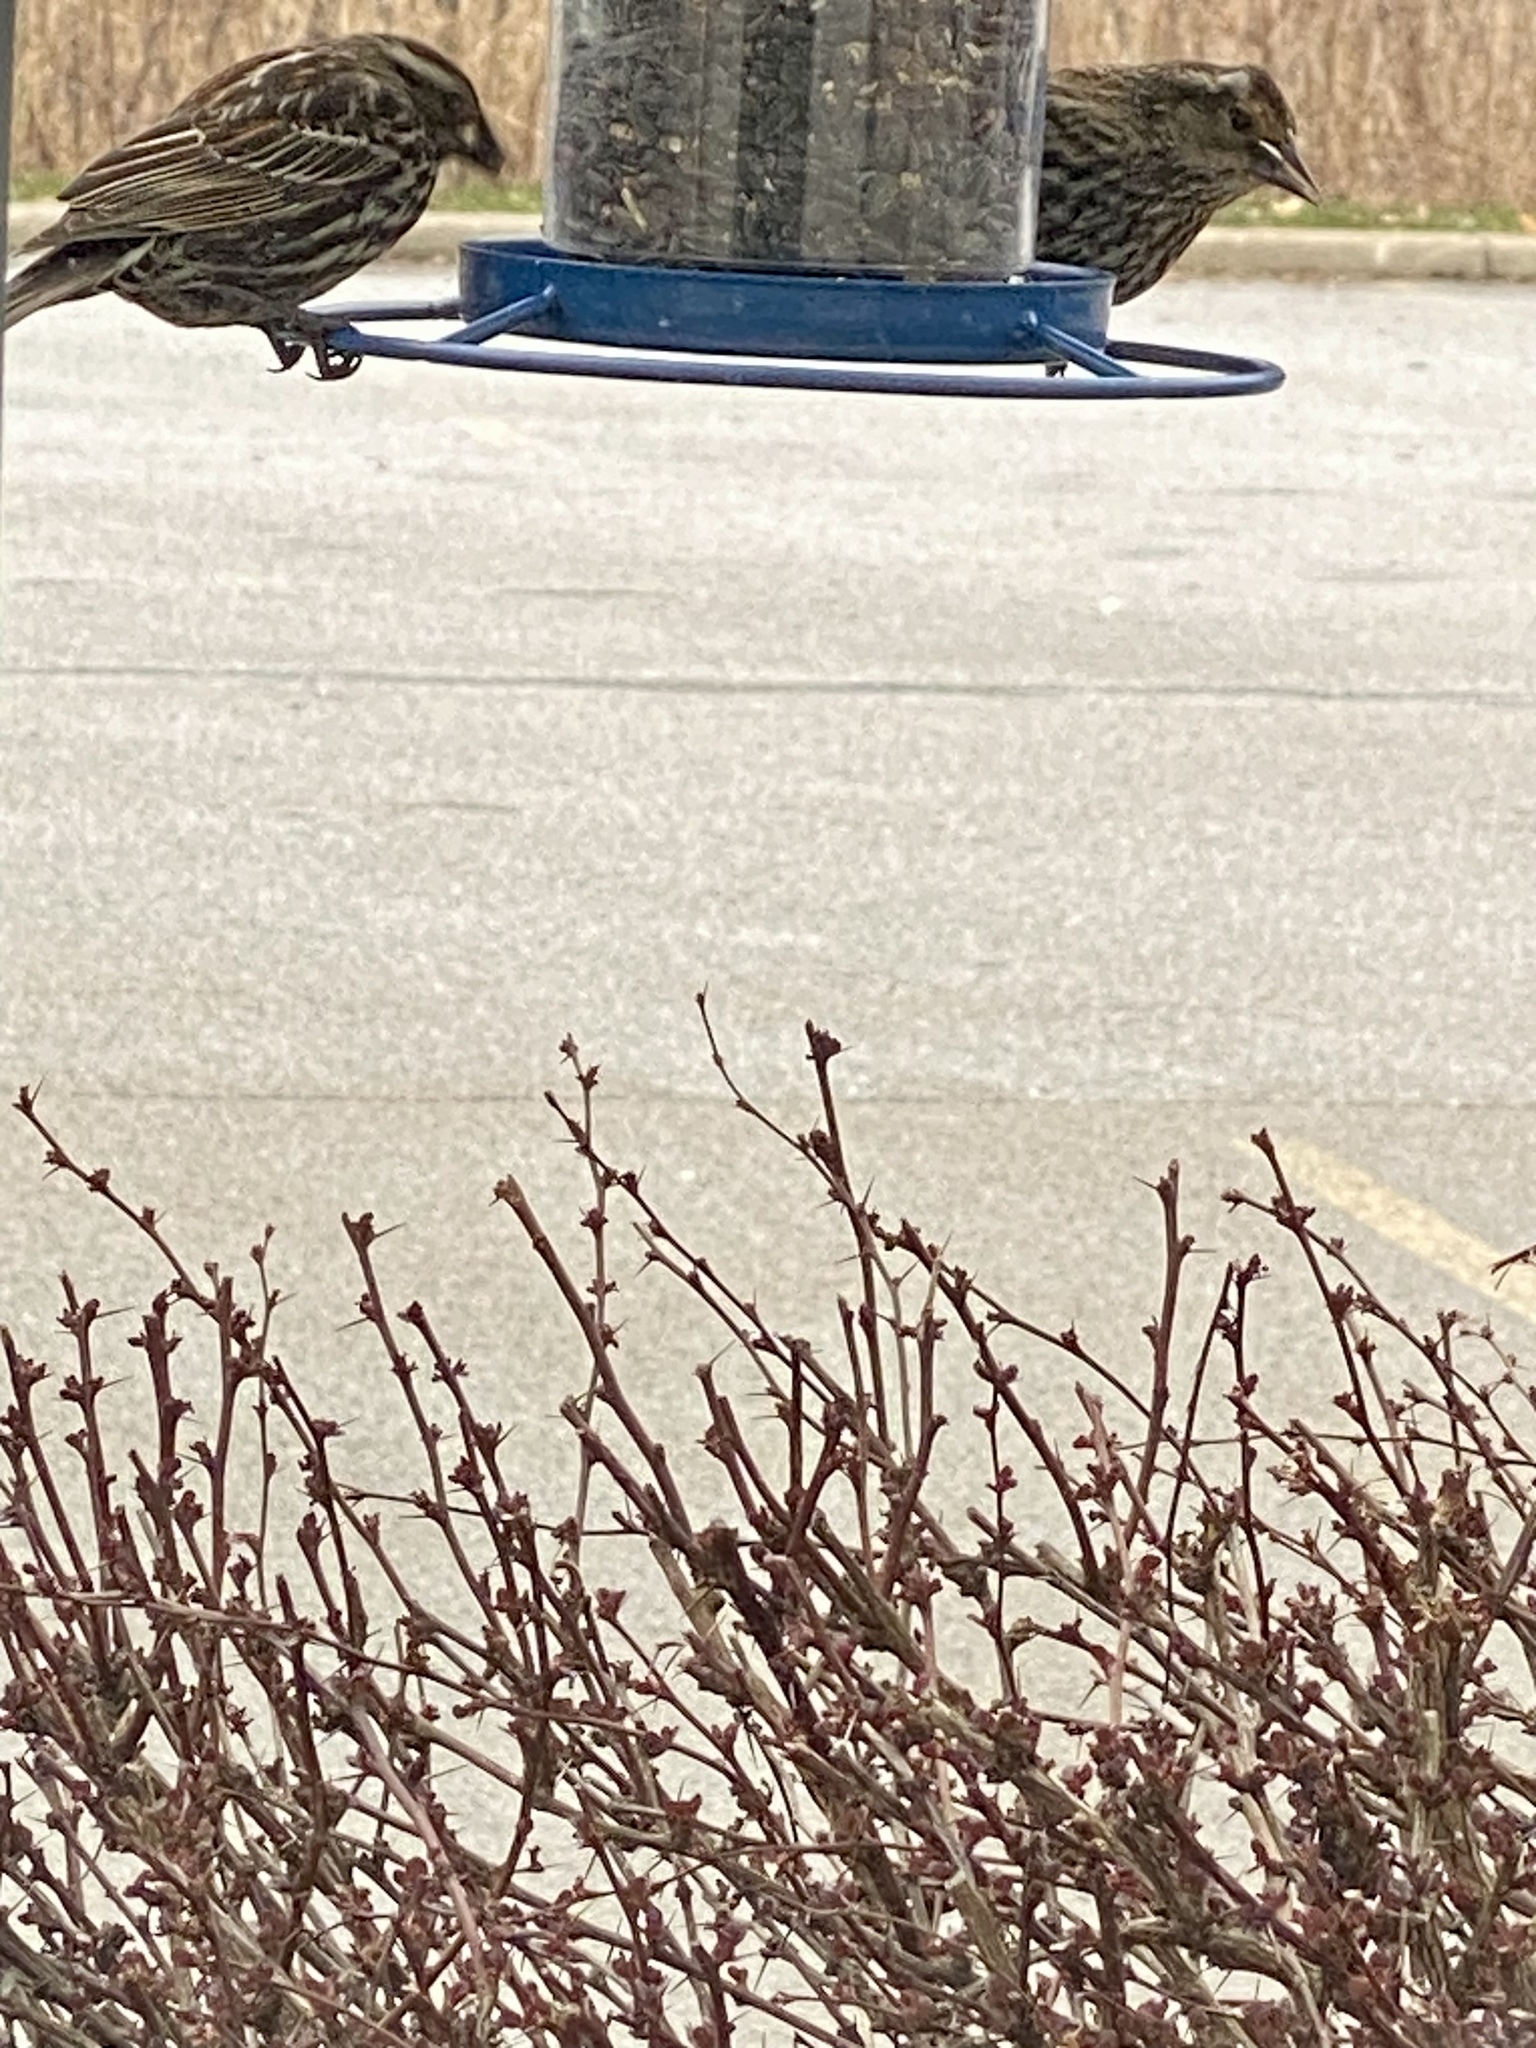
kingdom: Animalia
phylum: Chordata
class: Aves
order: Passeriformes
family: Icteridae
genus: Agelaius
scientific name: Agelaius phoeniceus
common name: Red-winged blackbird
